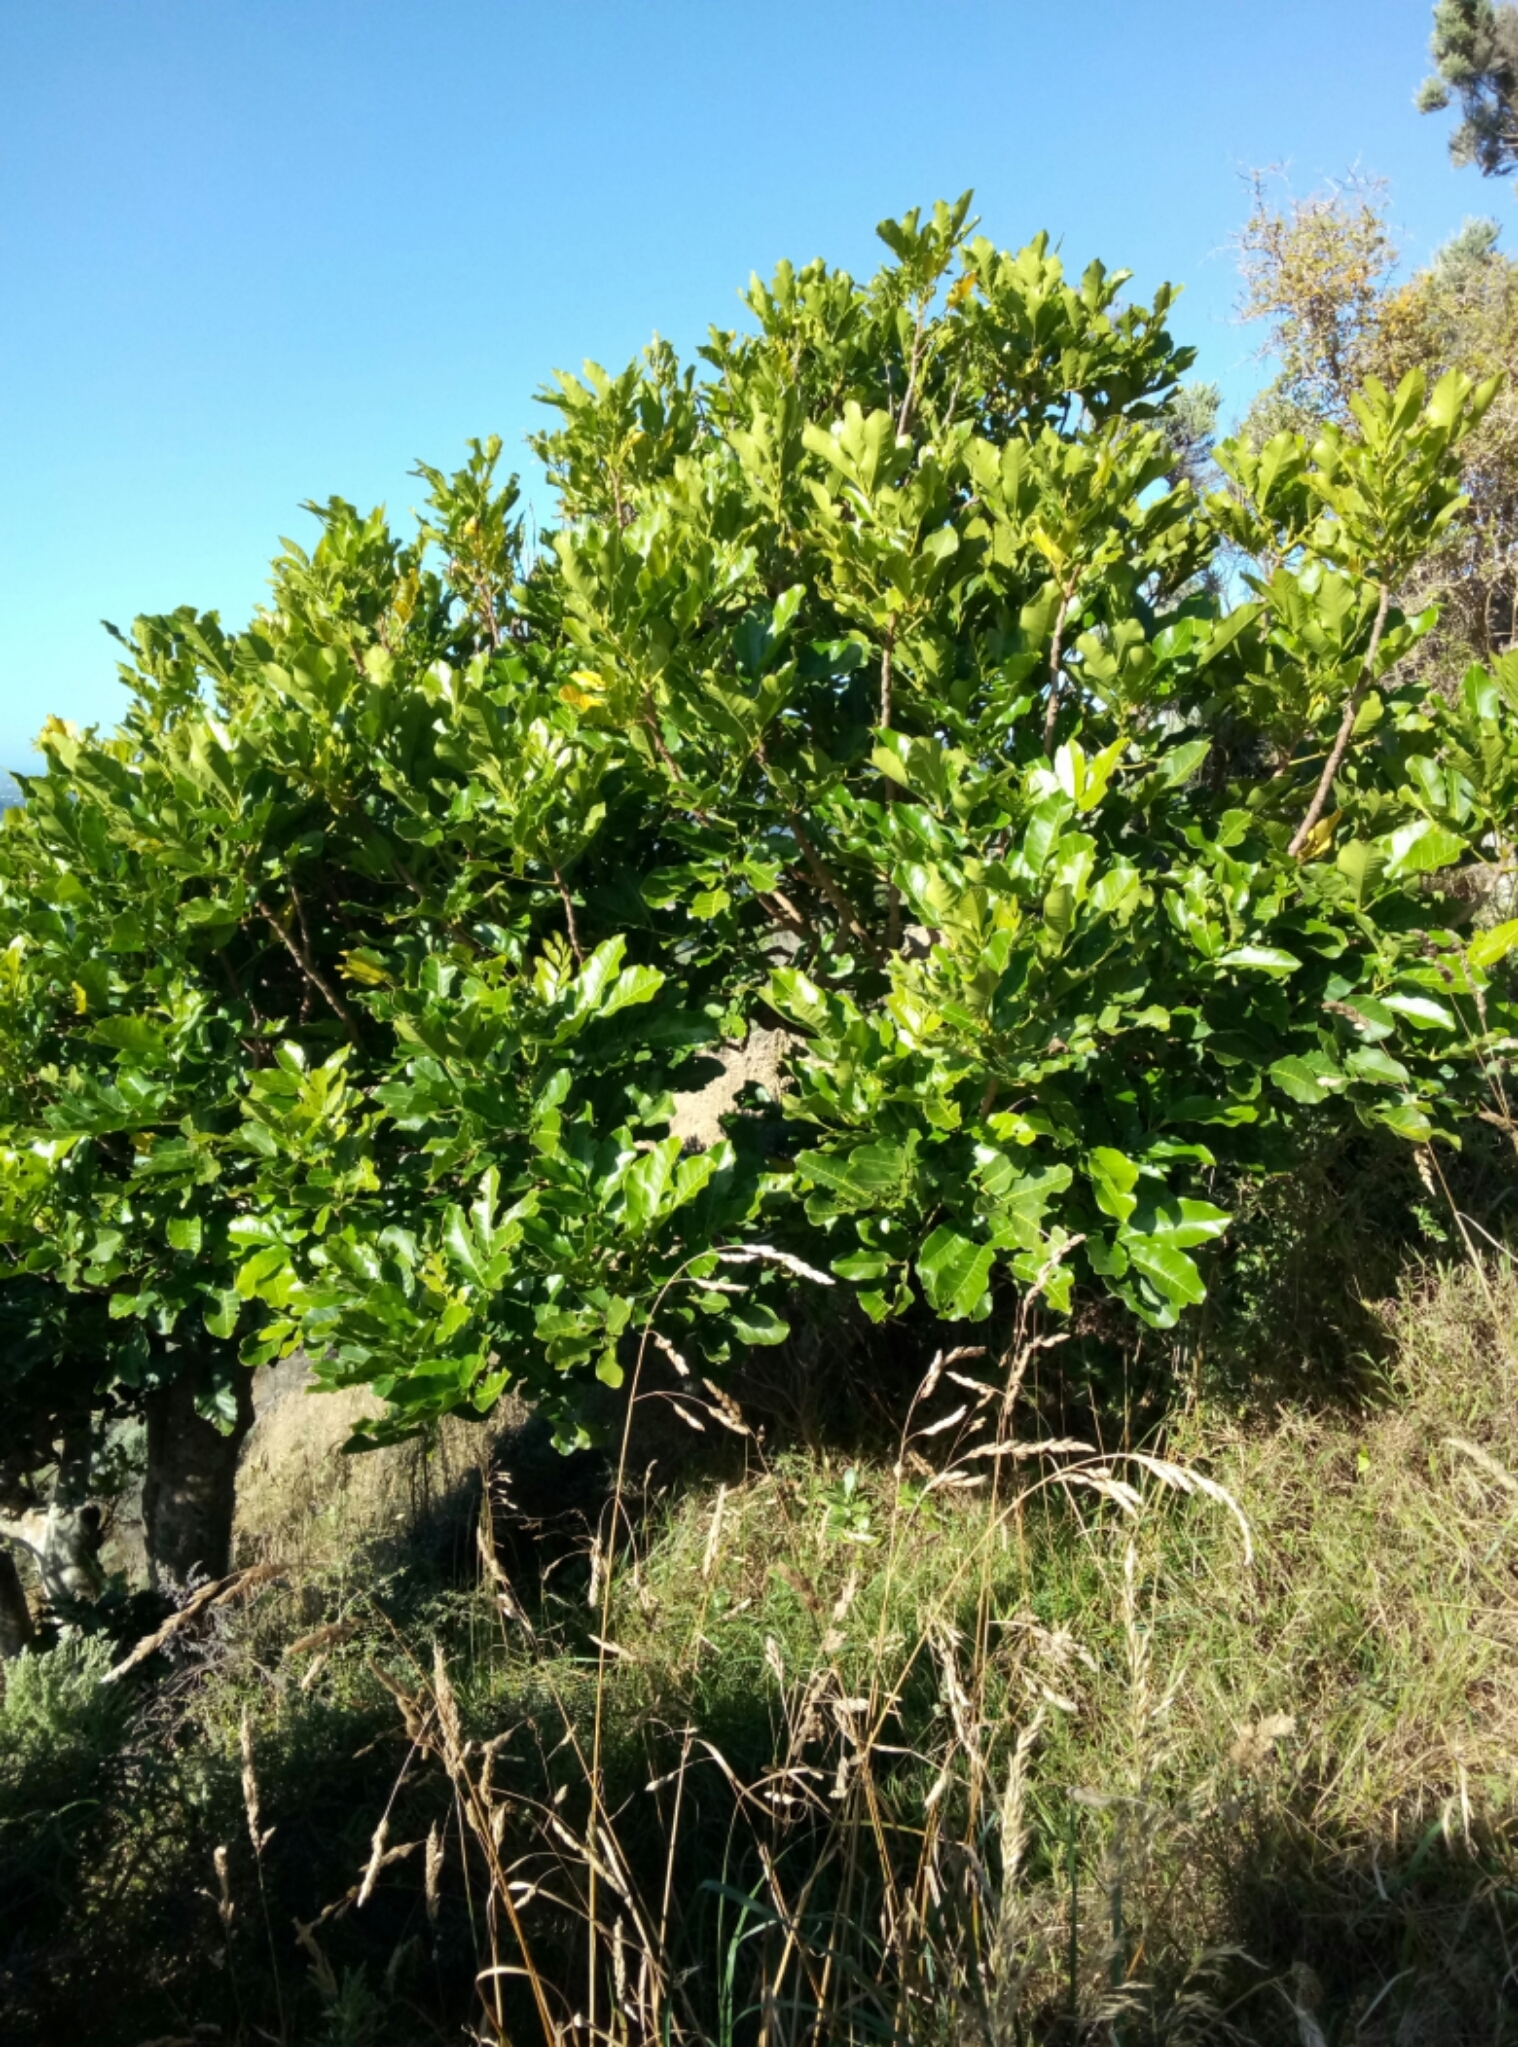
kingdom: Plantae
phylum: Tracheophyta
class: Magnoliopsida
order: Sapindales
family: Meliaceae
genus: Didymocheton
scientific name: Didymocheton spectabilis
